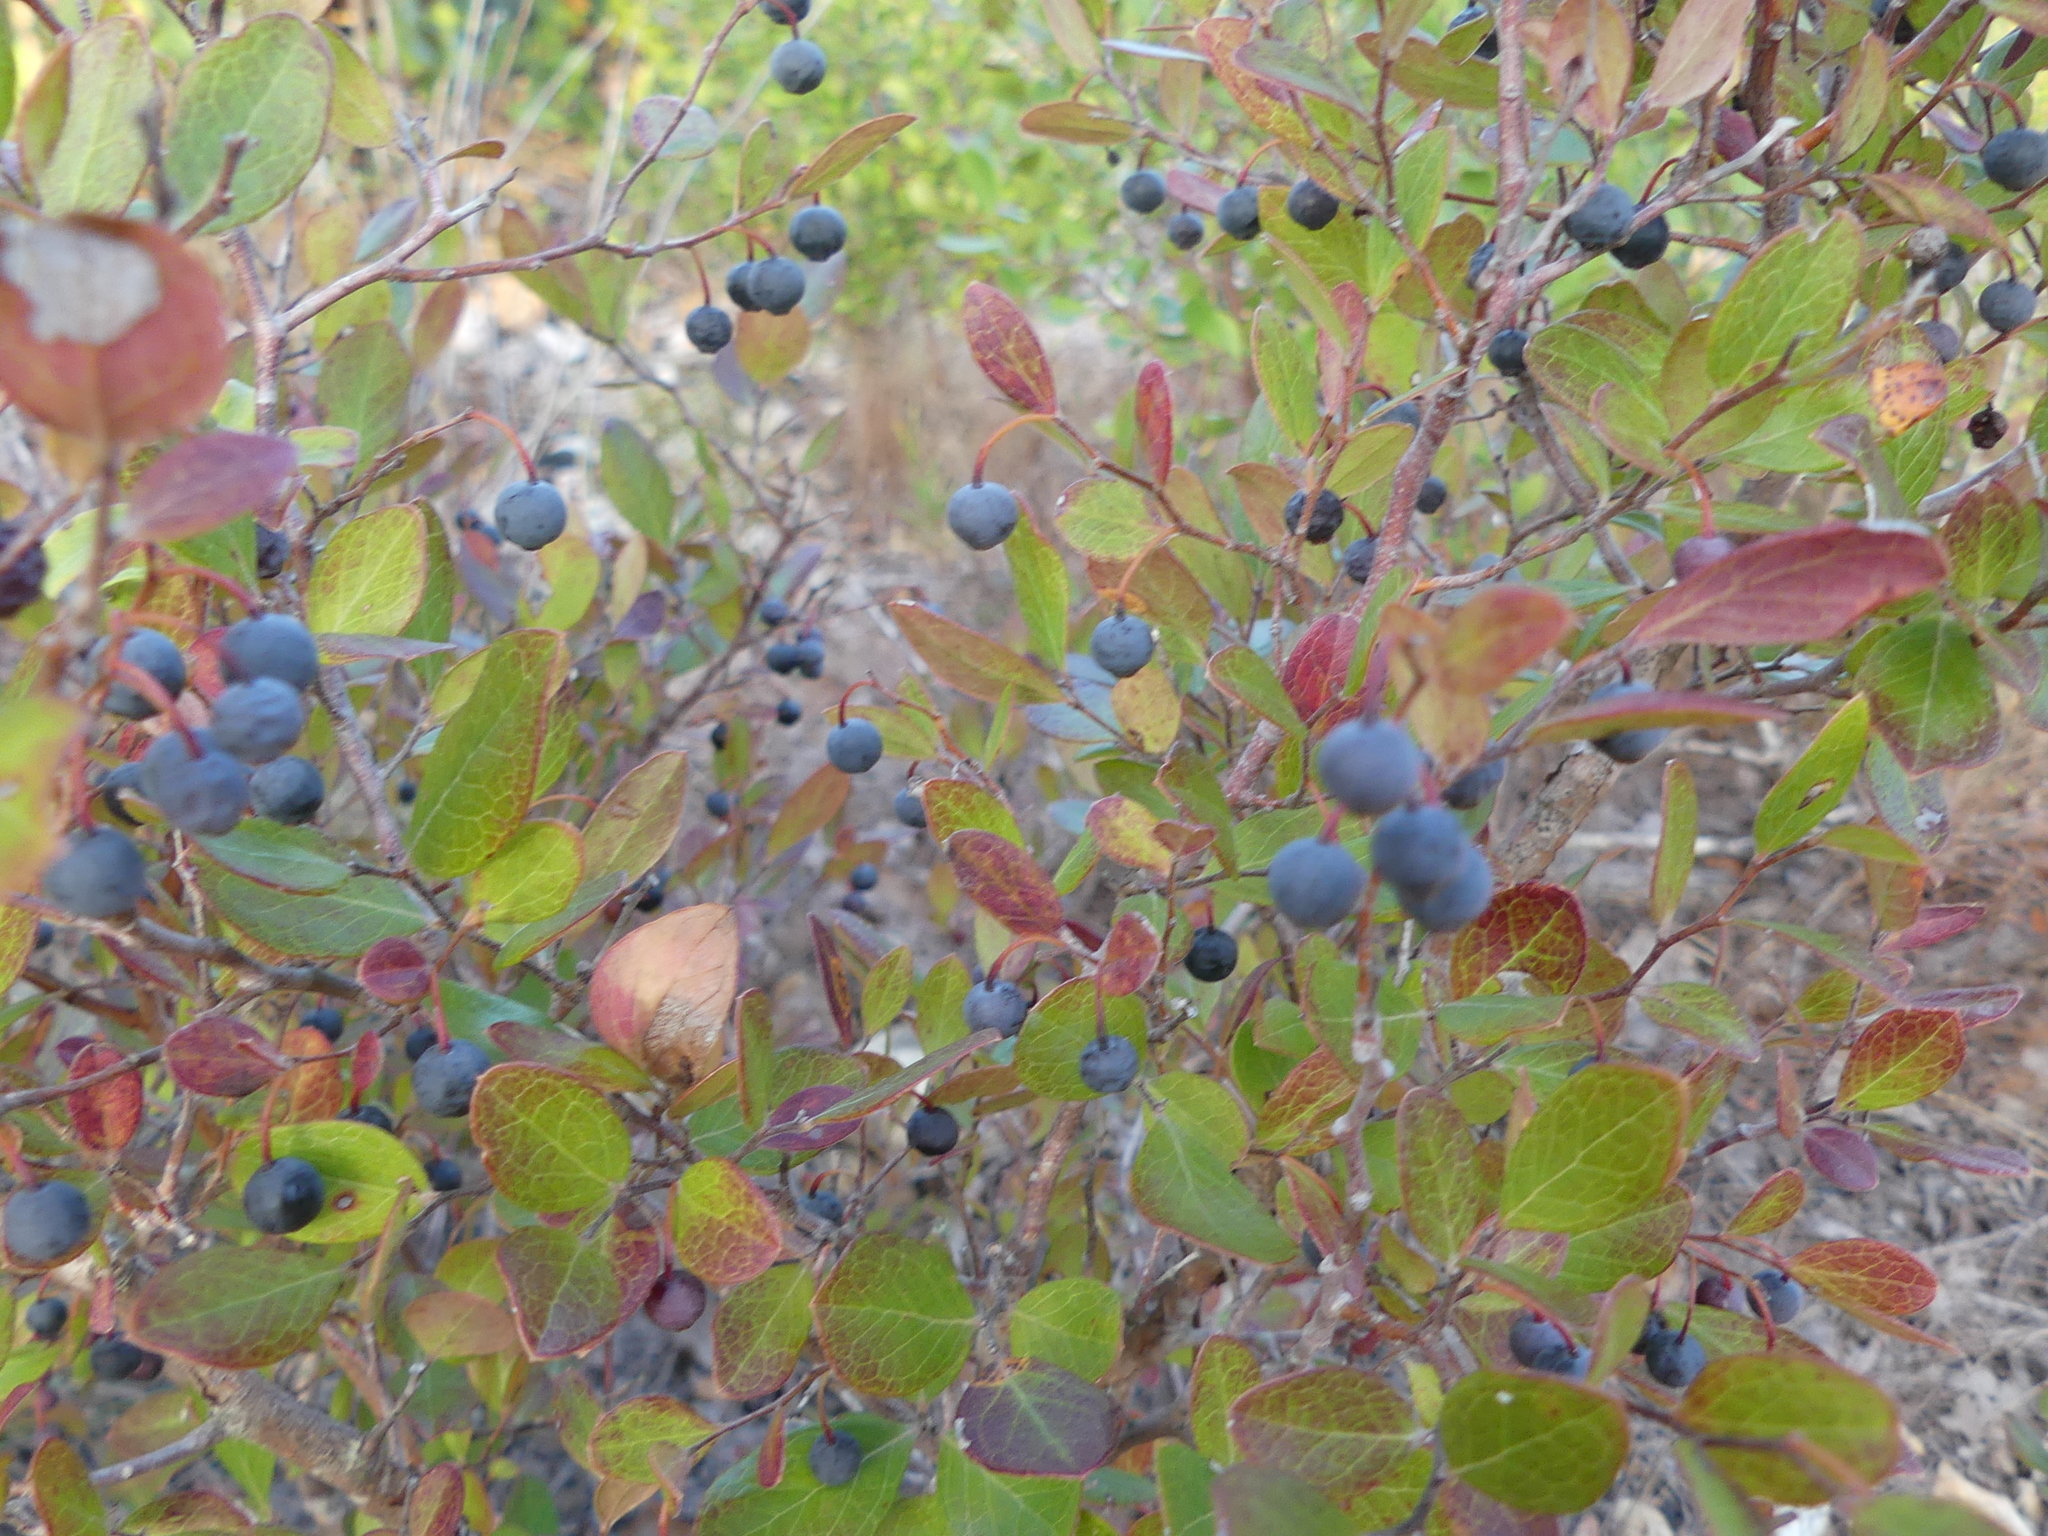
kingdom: Plantae
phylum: Tracheophyta
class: Magnoliopsida
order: Ericales
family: Ericaceae
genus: Vaccinium
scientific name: Vaccinium arboreum
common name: Farkleberry
